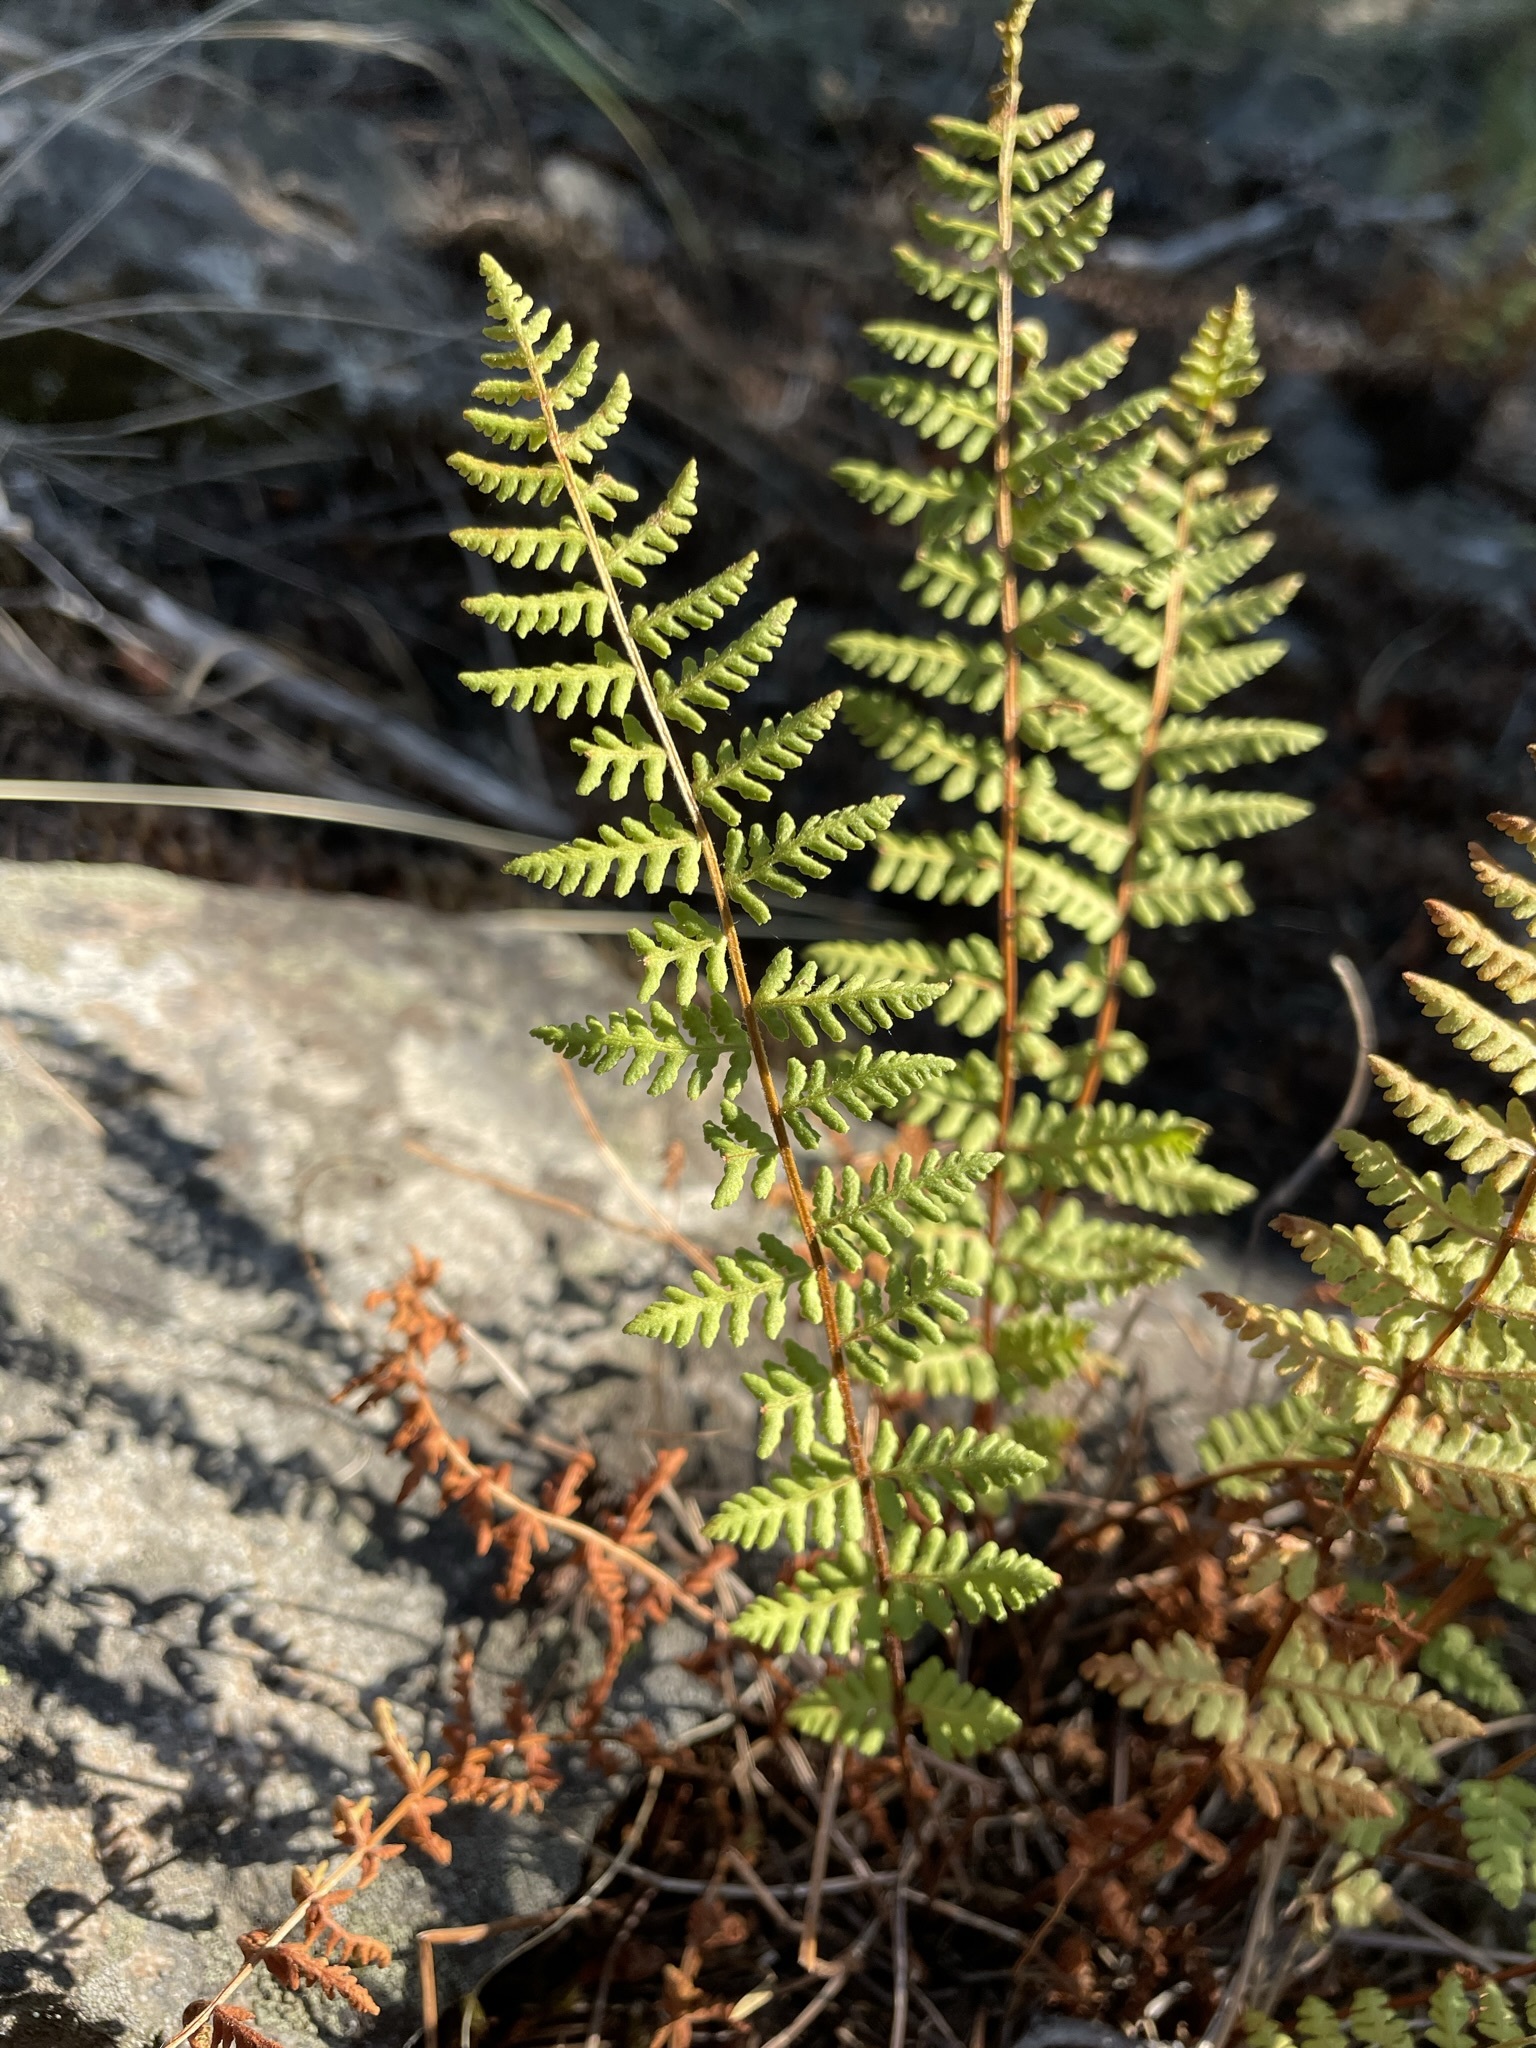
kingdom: Plantae
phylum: Tracheophyta
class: Polypodiopsida
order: Polypodiales
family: Woodsiaceae
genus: Physematium
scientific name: Physematium scopulinum
